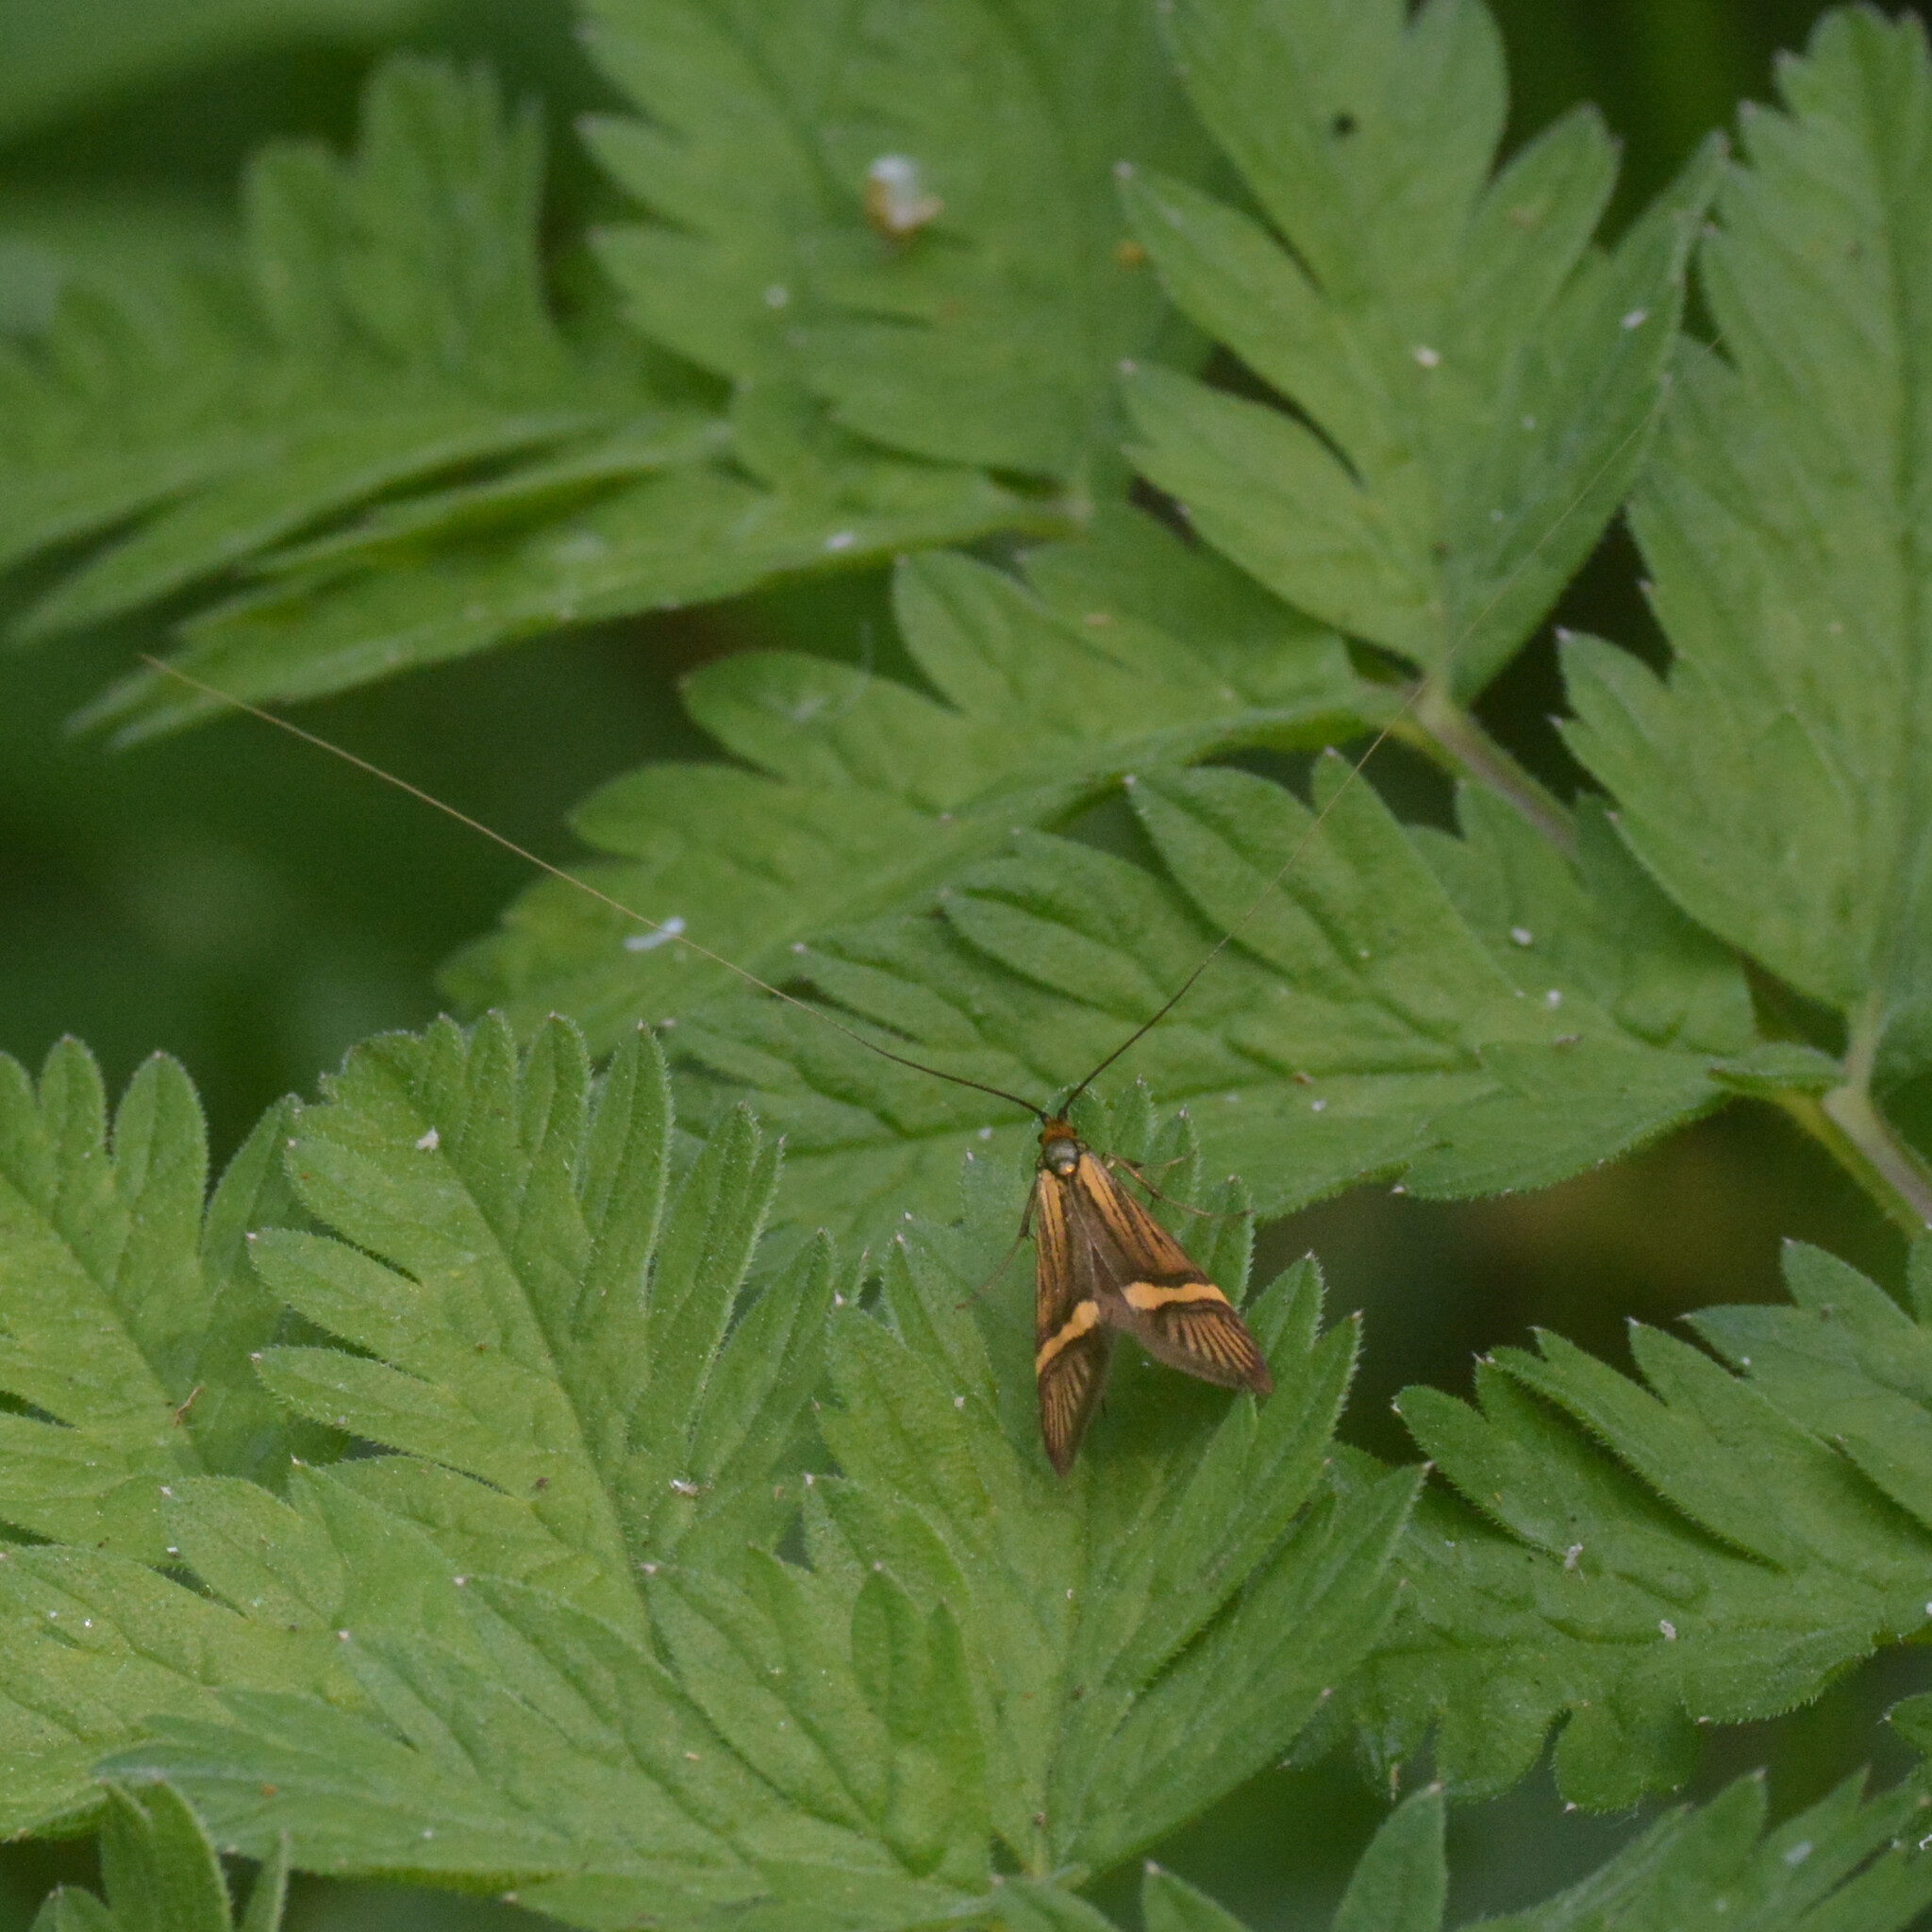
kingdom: Animalia
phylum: Arthropoda
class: Insecta
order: Lepidoptera
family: Adelidae
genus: Nemophora
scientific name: Nemophora degeerella
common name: Yellow-barred long-horn
